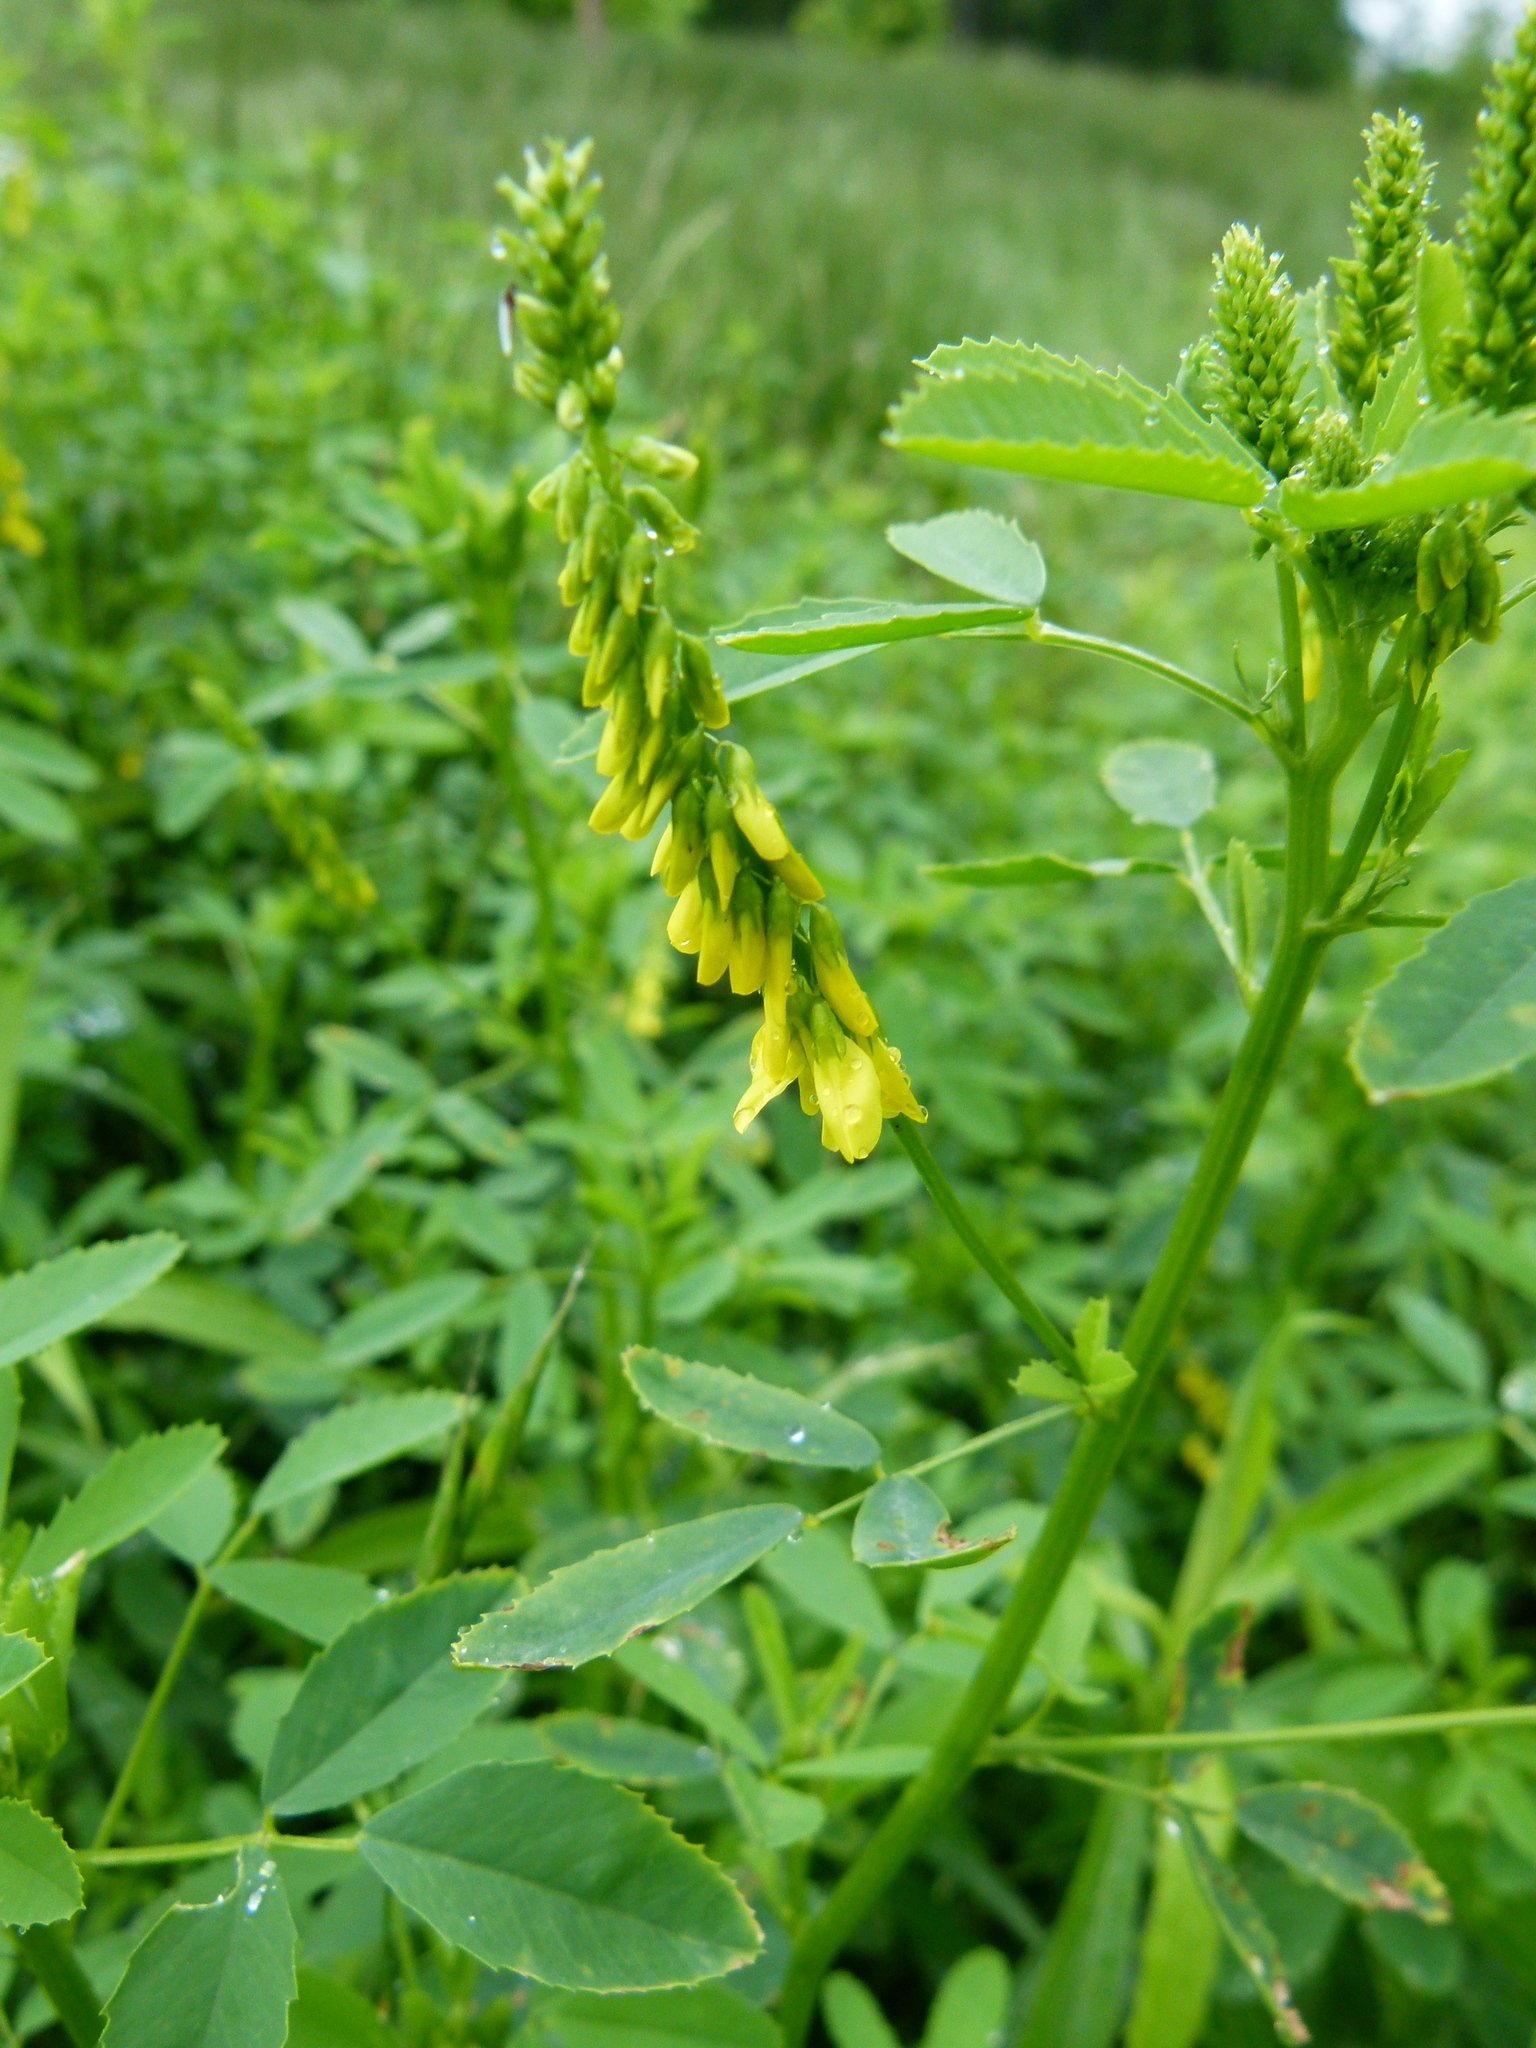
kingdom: Plantae
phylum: Tracheophyta
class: Magnoliopsida
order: Fabales
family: Fabaceae
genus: Melilotus
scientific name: Melilotus officinalis
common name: Sweetclover
